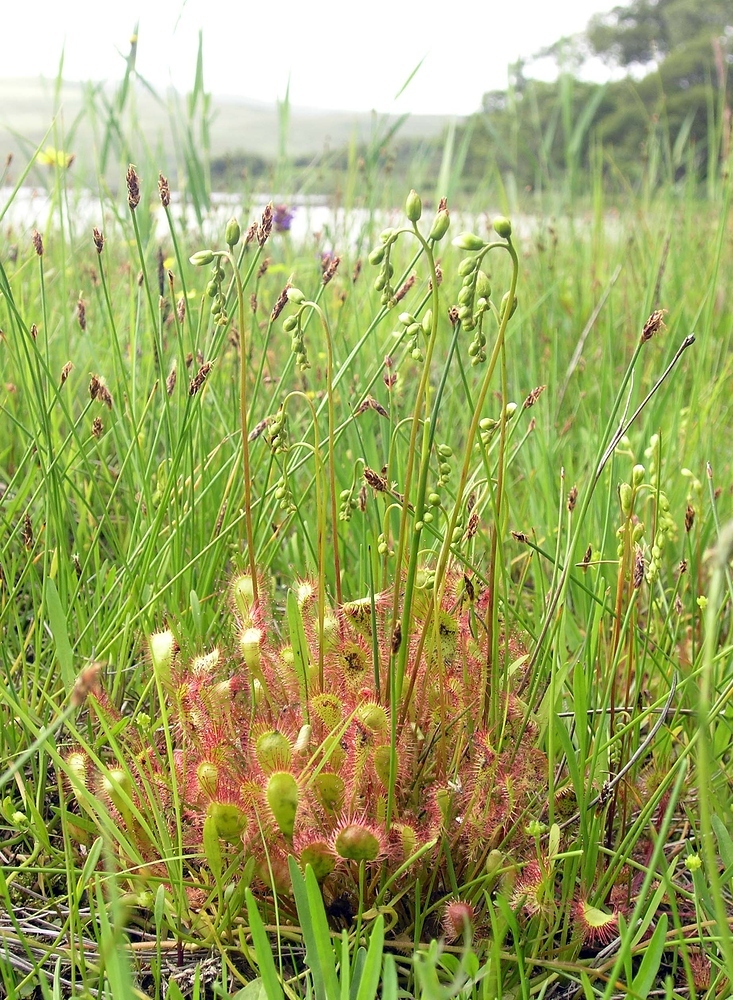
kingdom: Plantae
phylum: Tracheophyta
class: Magnoliopsida
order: Caryophyllales
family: Droseraceae
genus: Drosera
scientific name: Drosera obovata
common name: Ivan's paddle
